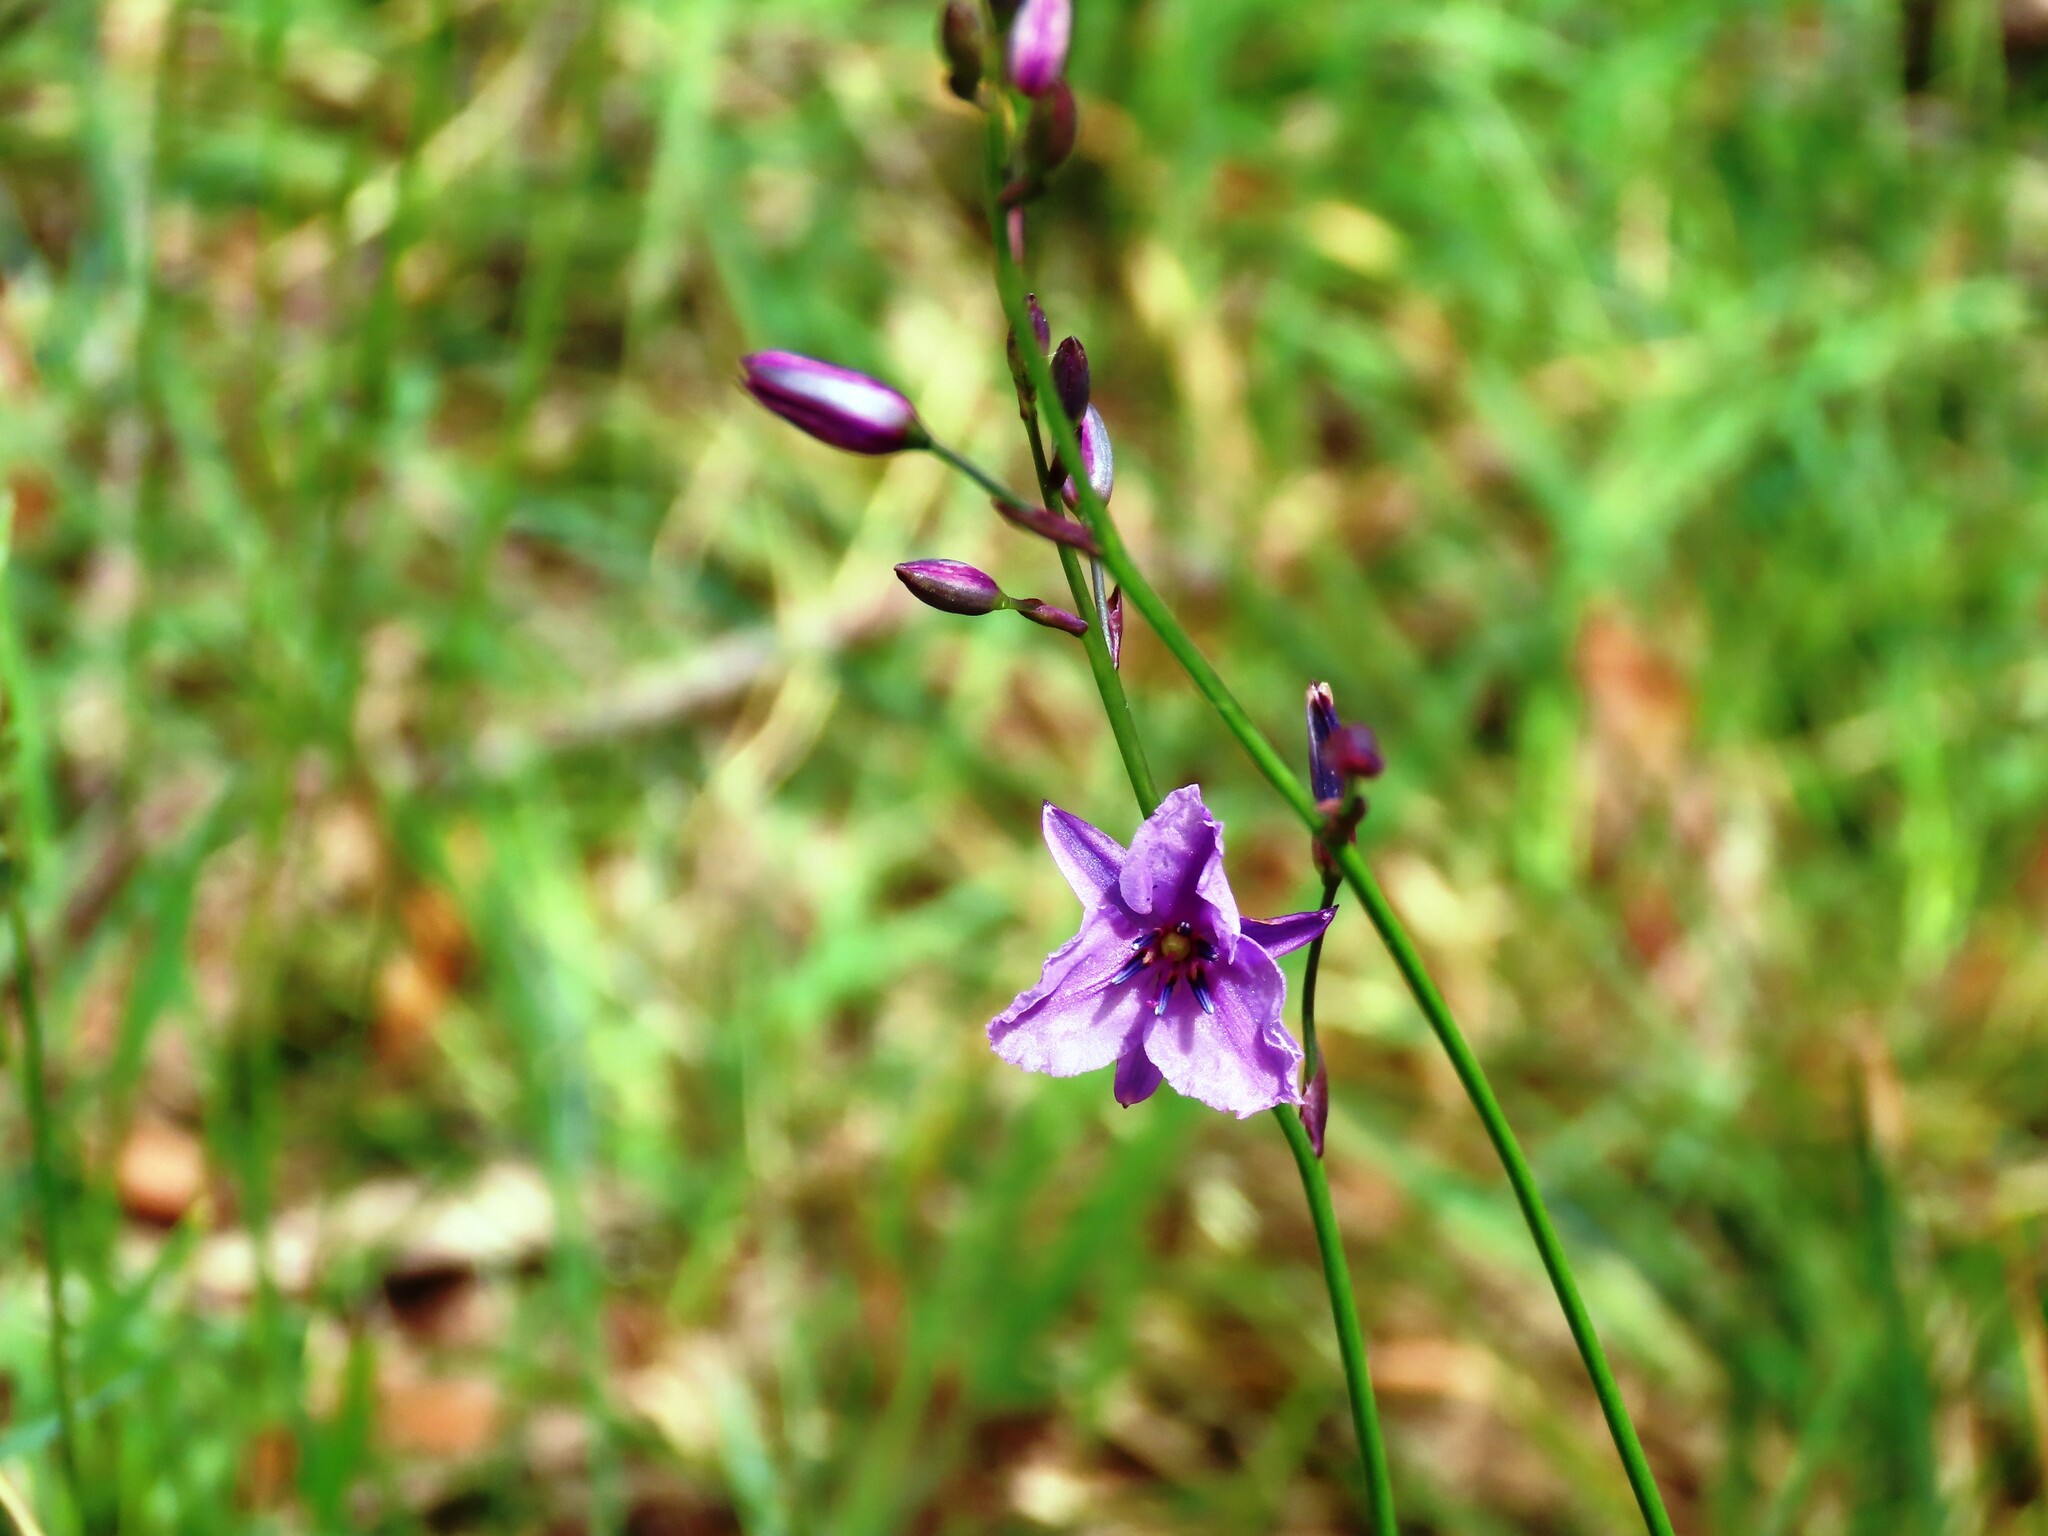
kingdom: Plantae
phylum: Tracheophyta
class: Liliopsida
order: Asparagales
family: Asparagaceae
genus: Arthropodium
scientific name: Arthropodium strictum
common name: Chocolate-lily
